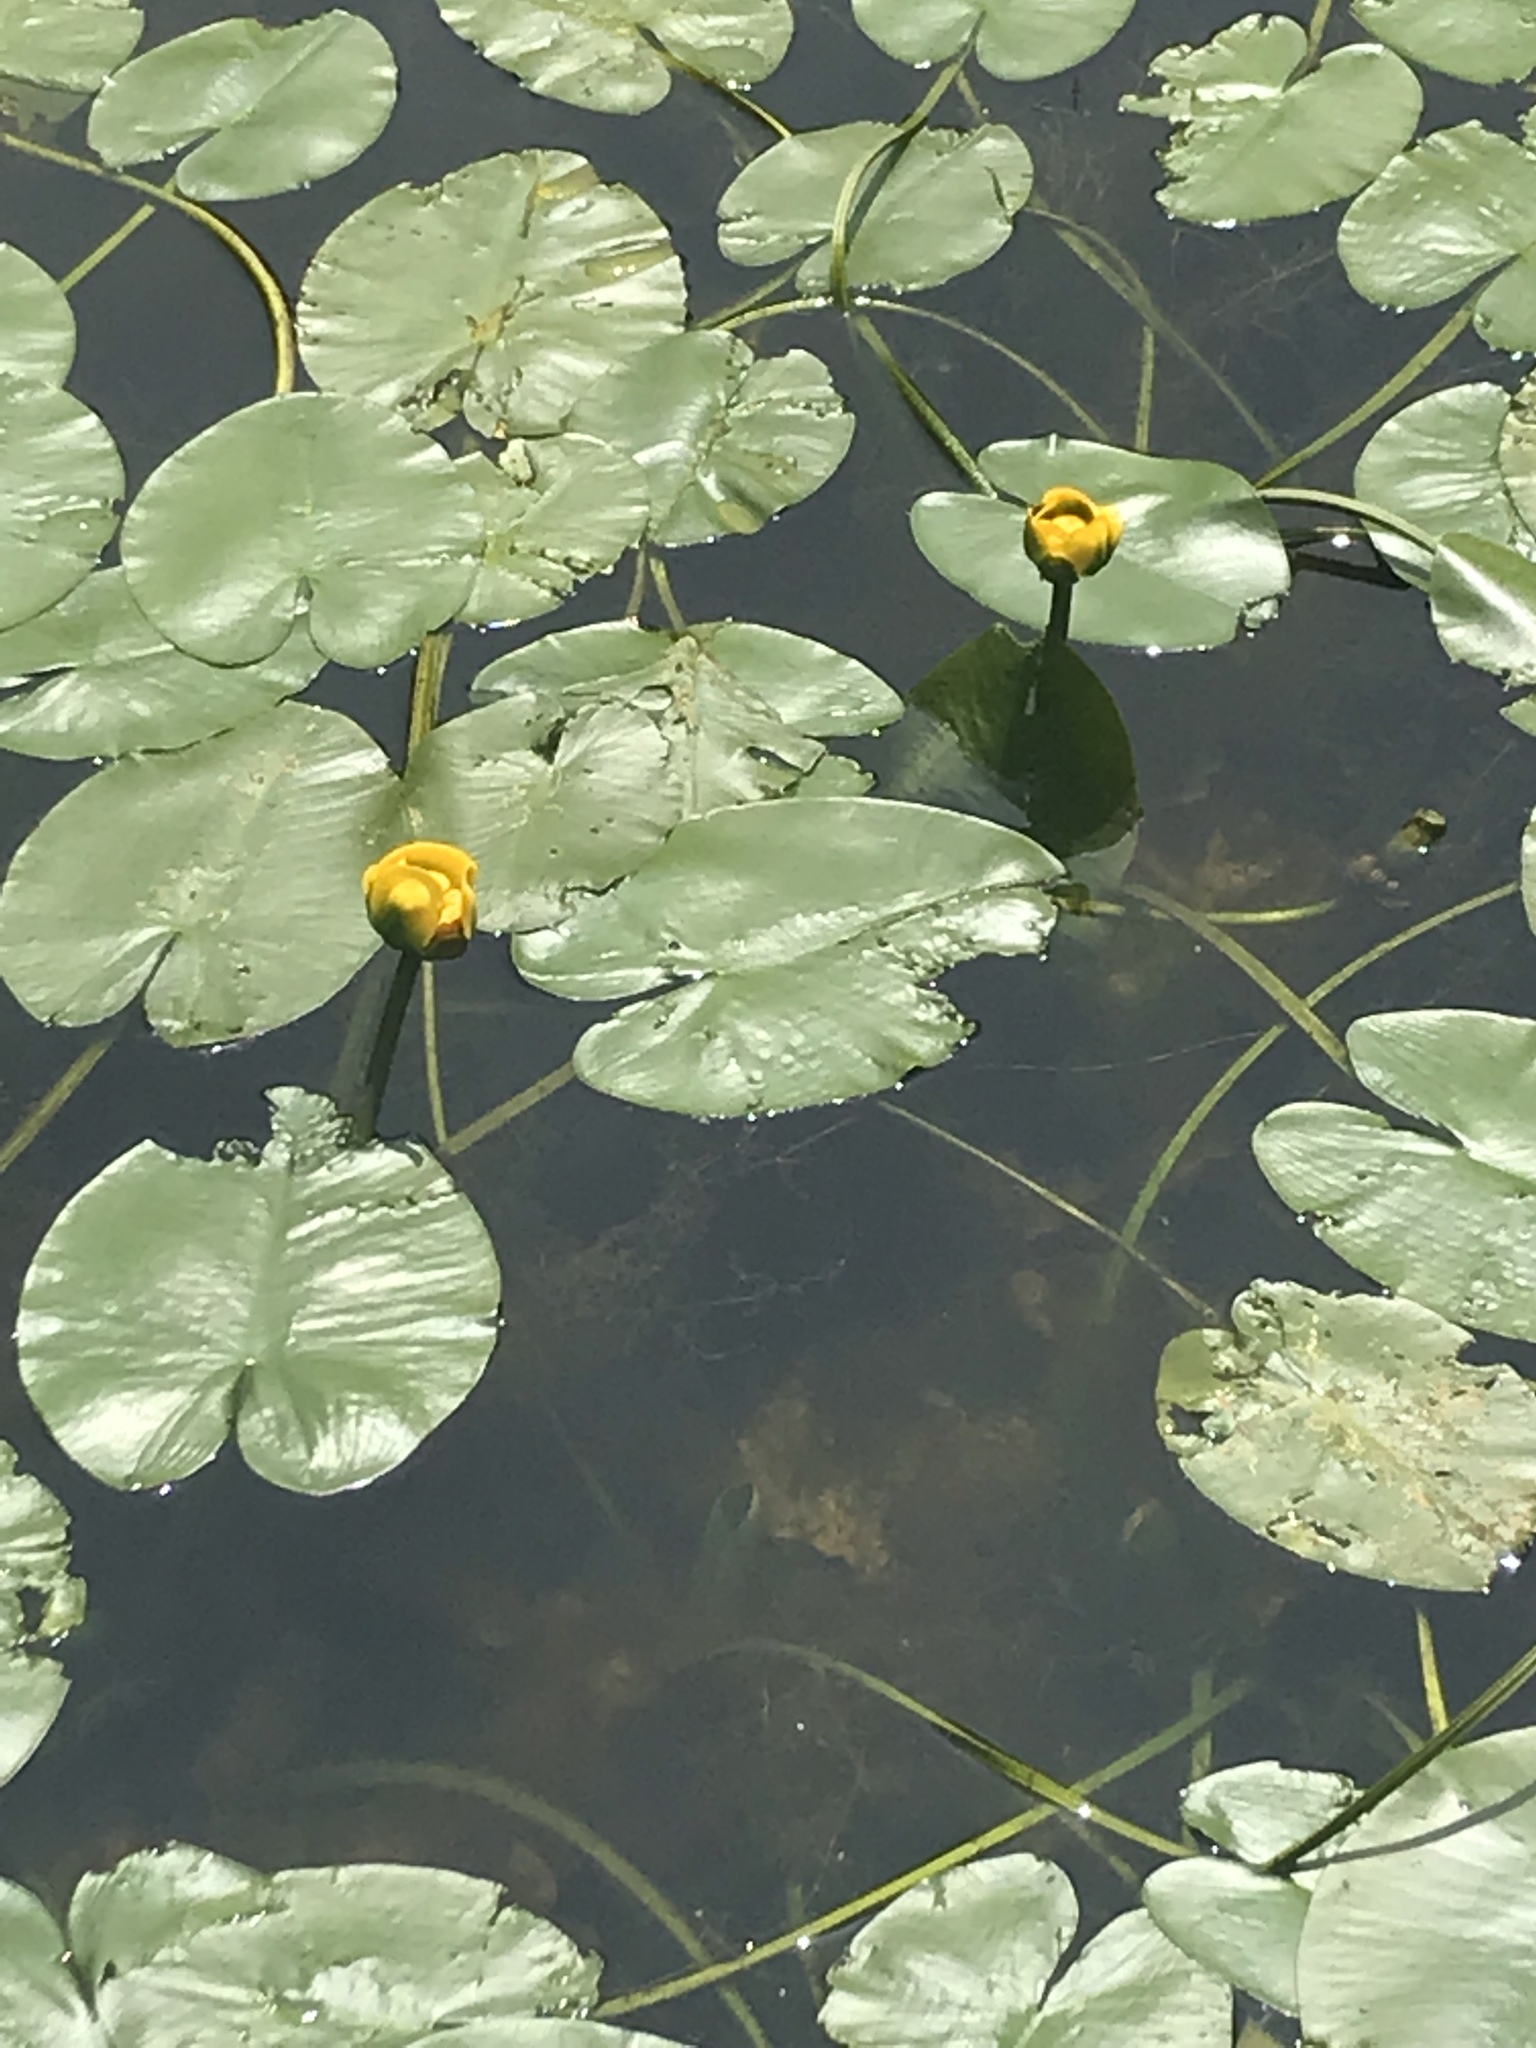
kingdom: Plantae
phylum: Tracheophyta
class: Magnoliopsida
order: Nymphaeales
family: Nymphaeaceae
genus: Nuphar
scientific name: Nuphar variegata
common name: Beaver-root
